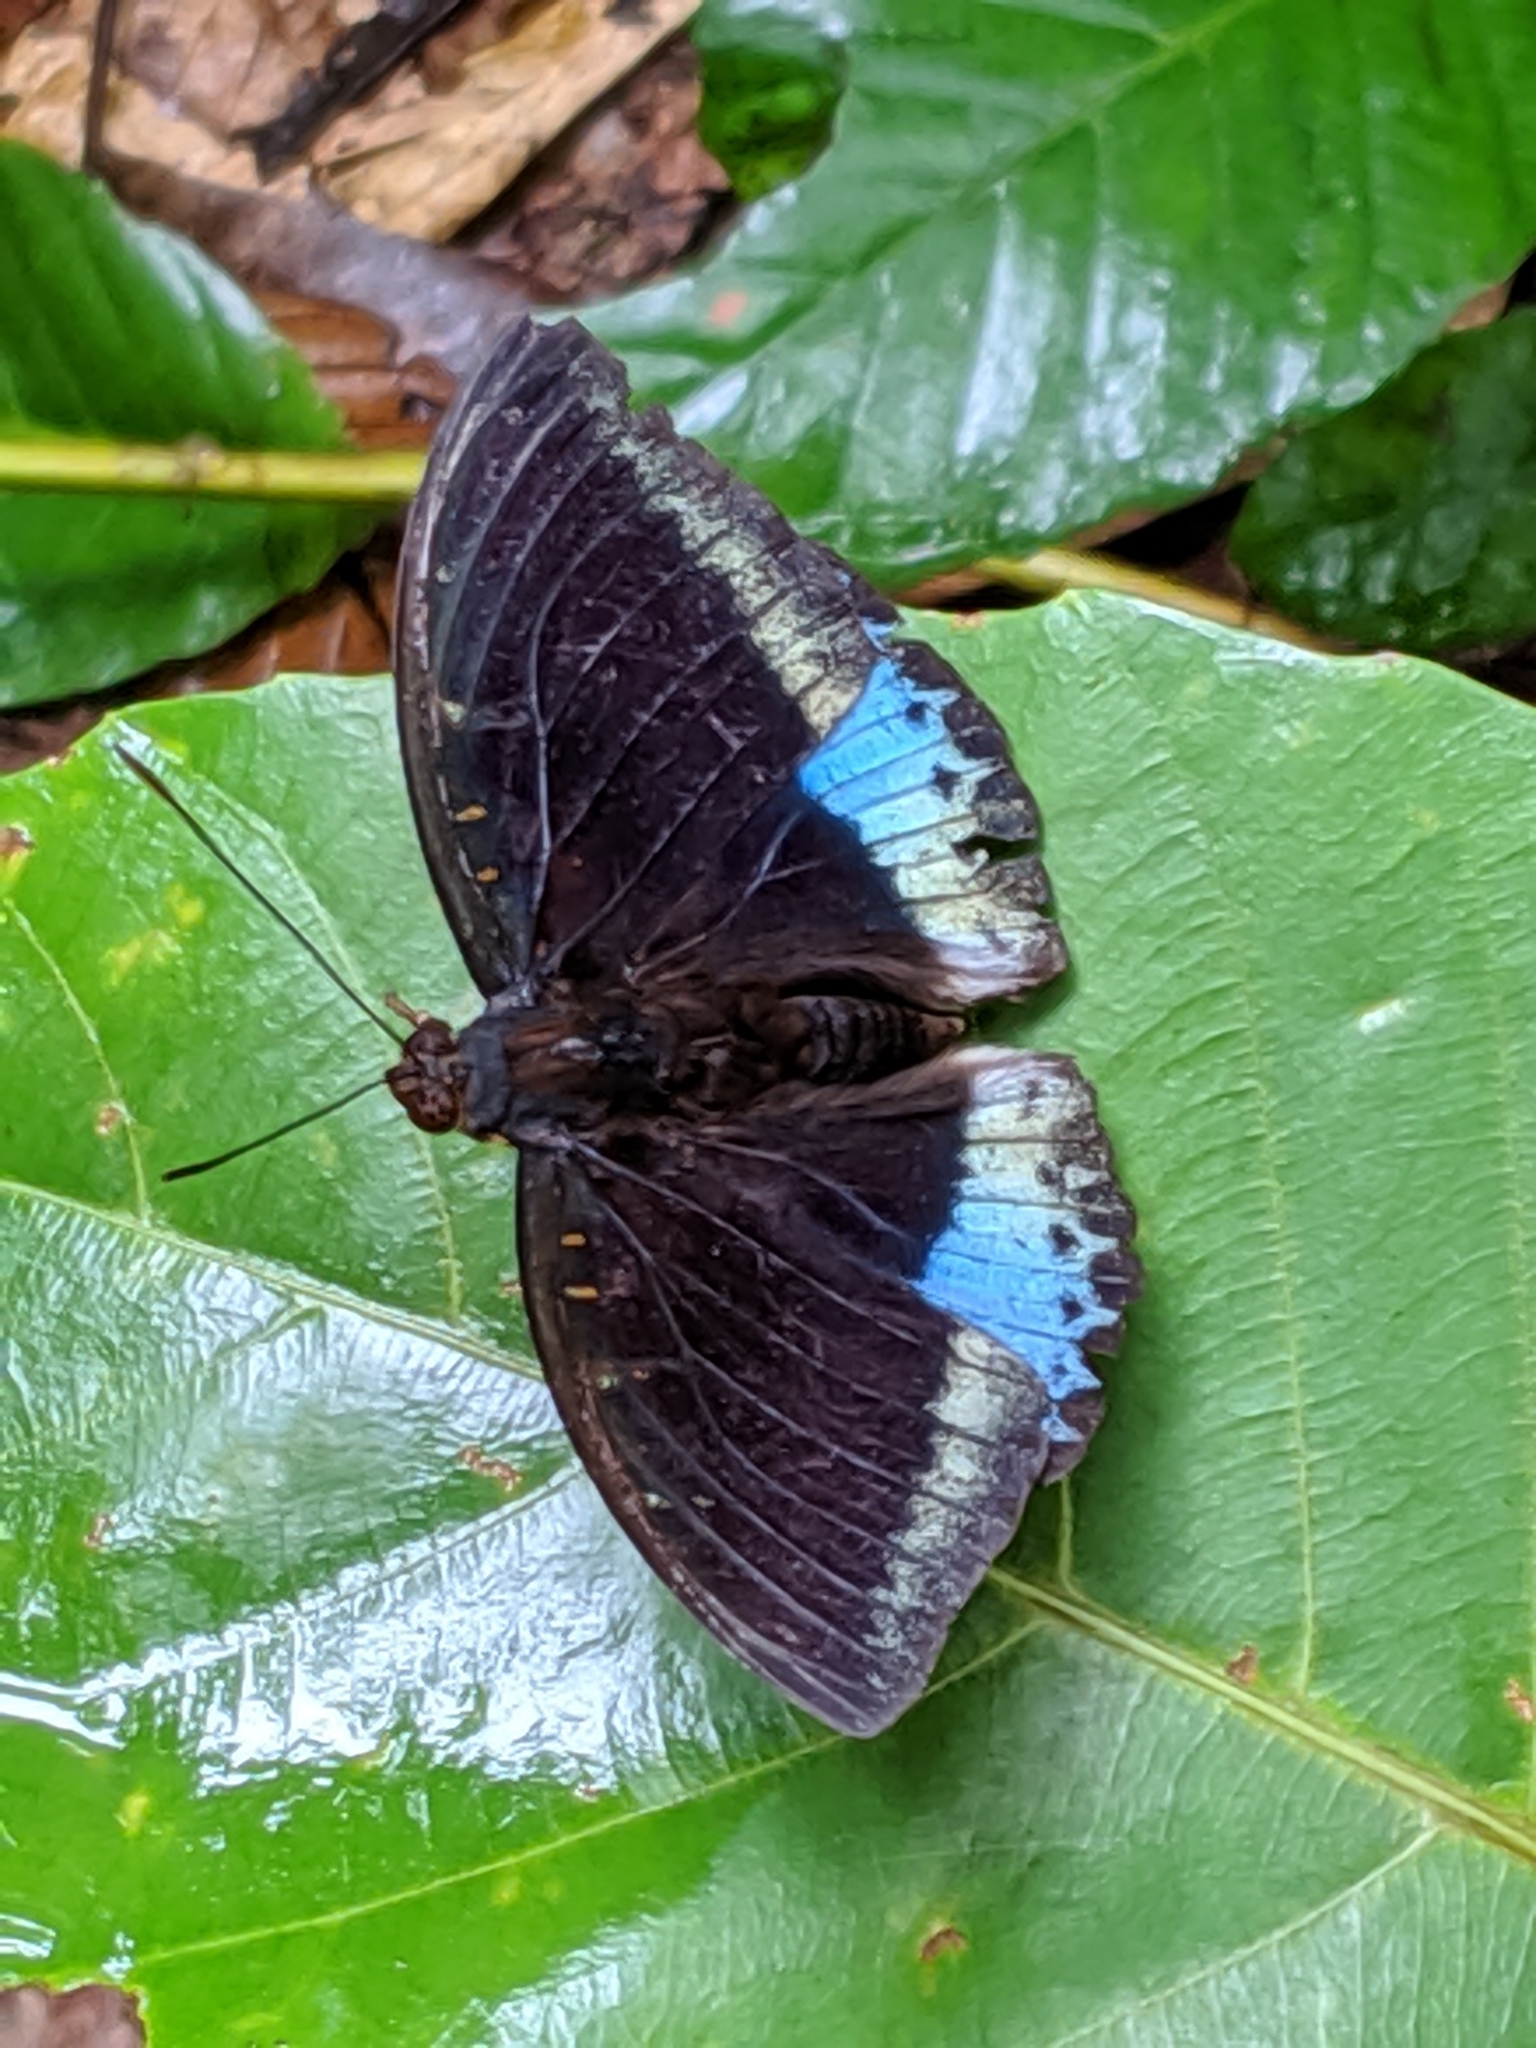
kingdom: Animalia
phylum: Arthropoda
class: Insecta
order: Lepidoptera
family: Nymphalidae
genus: Lexias
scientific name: Lexias dirtea
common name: Black-tipped archduke
